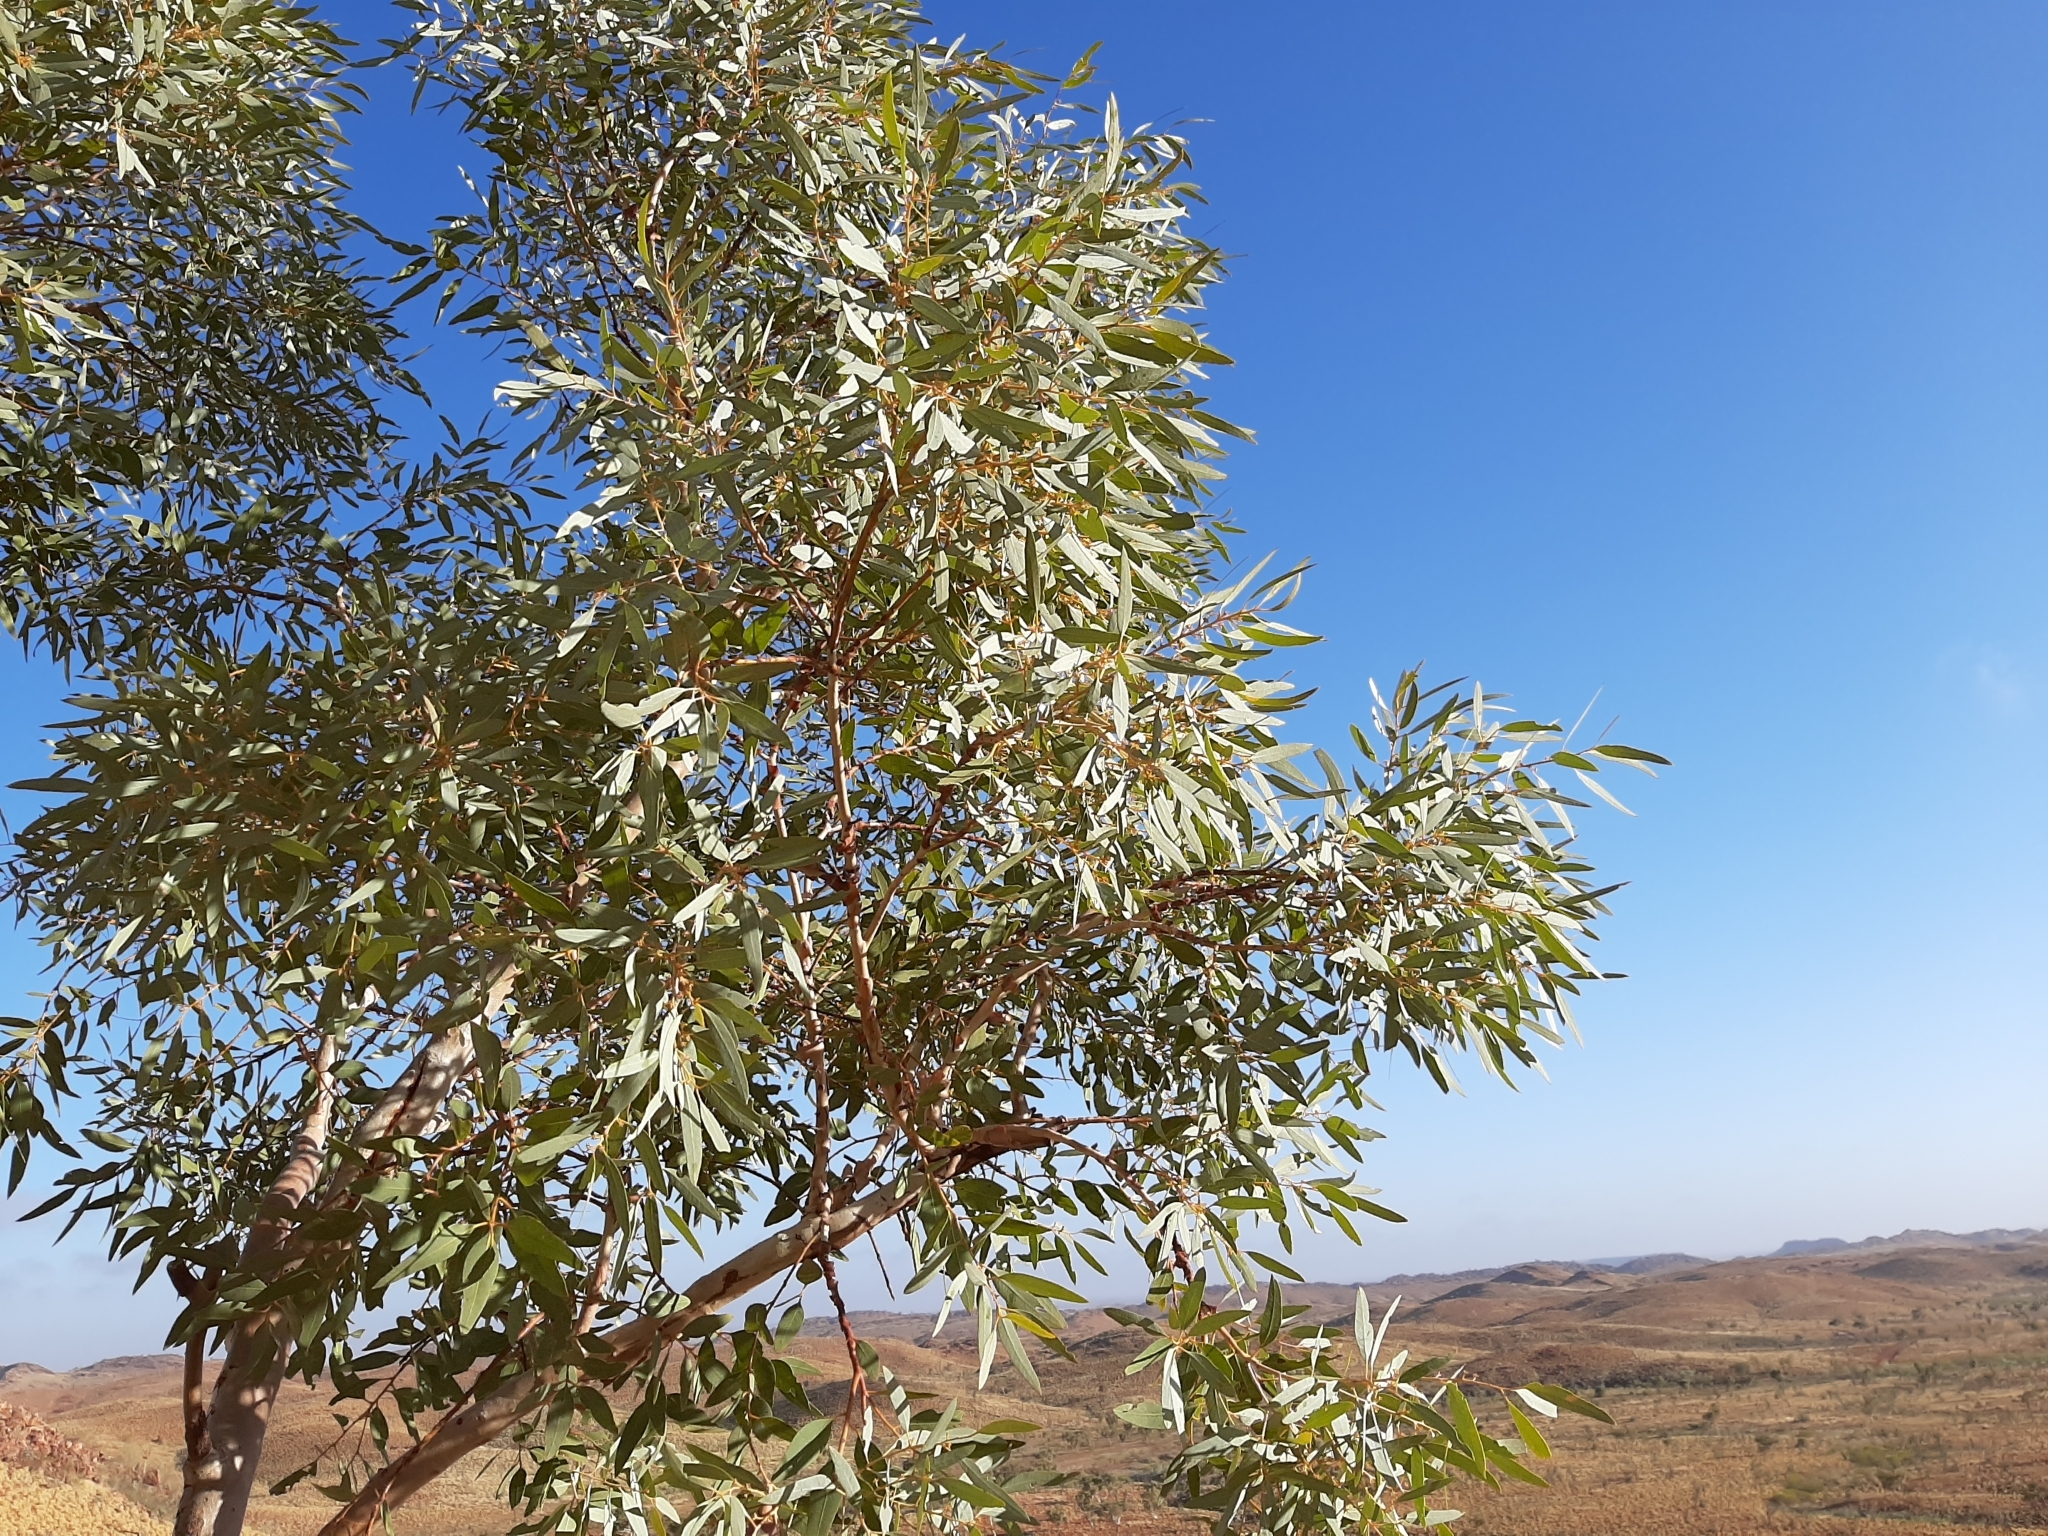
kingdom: Plantae
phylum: Tracheophyta
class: Magnoliopsida
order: Myrtales
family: Myrtaceae
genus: Eucalyptus
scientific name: Eucalyptus leucophloia
